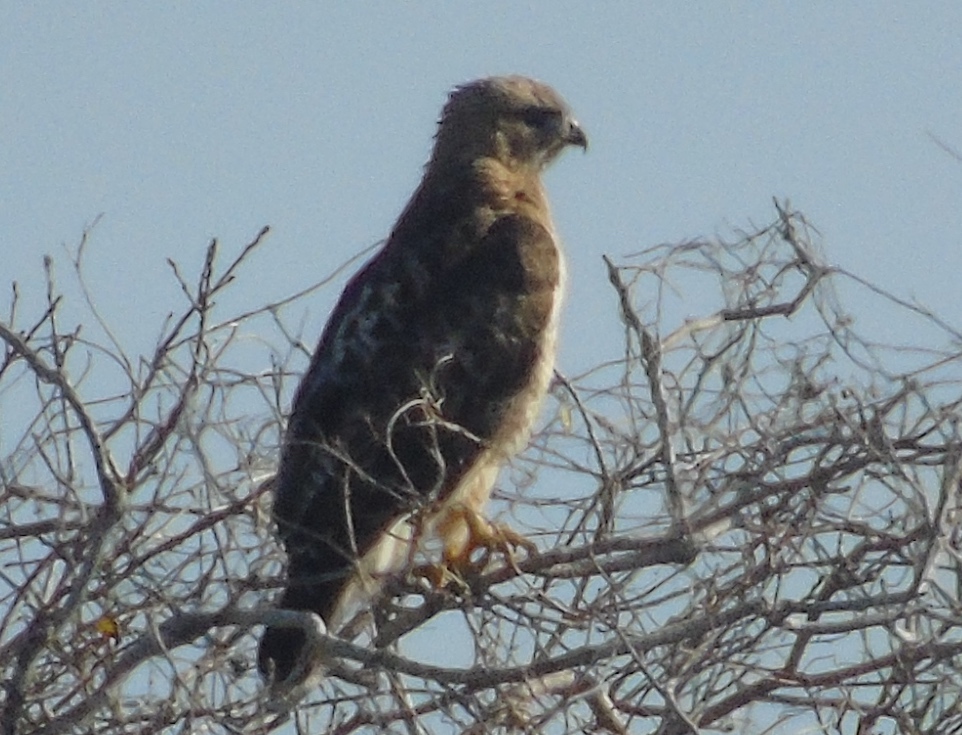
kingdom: Animalia
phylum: Chordata
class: Aves
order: Accipitriformes
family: Accipitridae
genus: Buteo
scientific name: Buteo jamaicensis
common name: Red-tailed hawk
